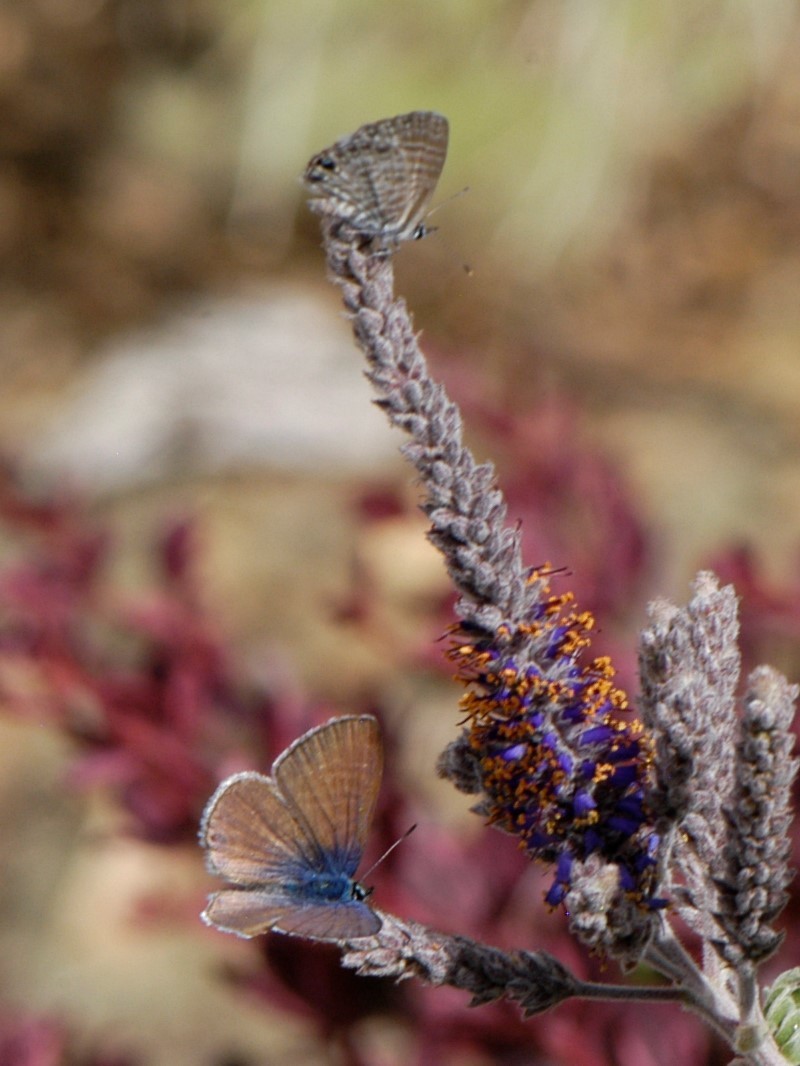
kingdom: Animalia
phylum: Arthropoda
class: Insecta
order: Lepidoptera
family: Lycaenidae
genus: Leptotes
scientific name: Leptotes marina
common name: Marine blue
